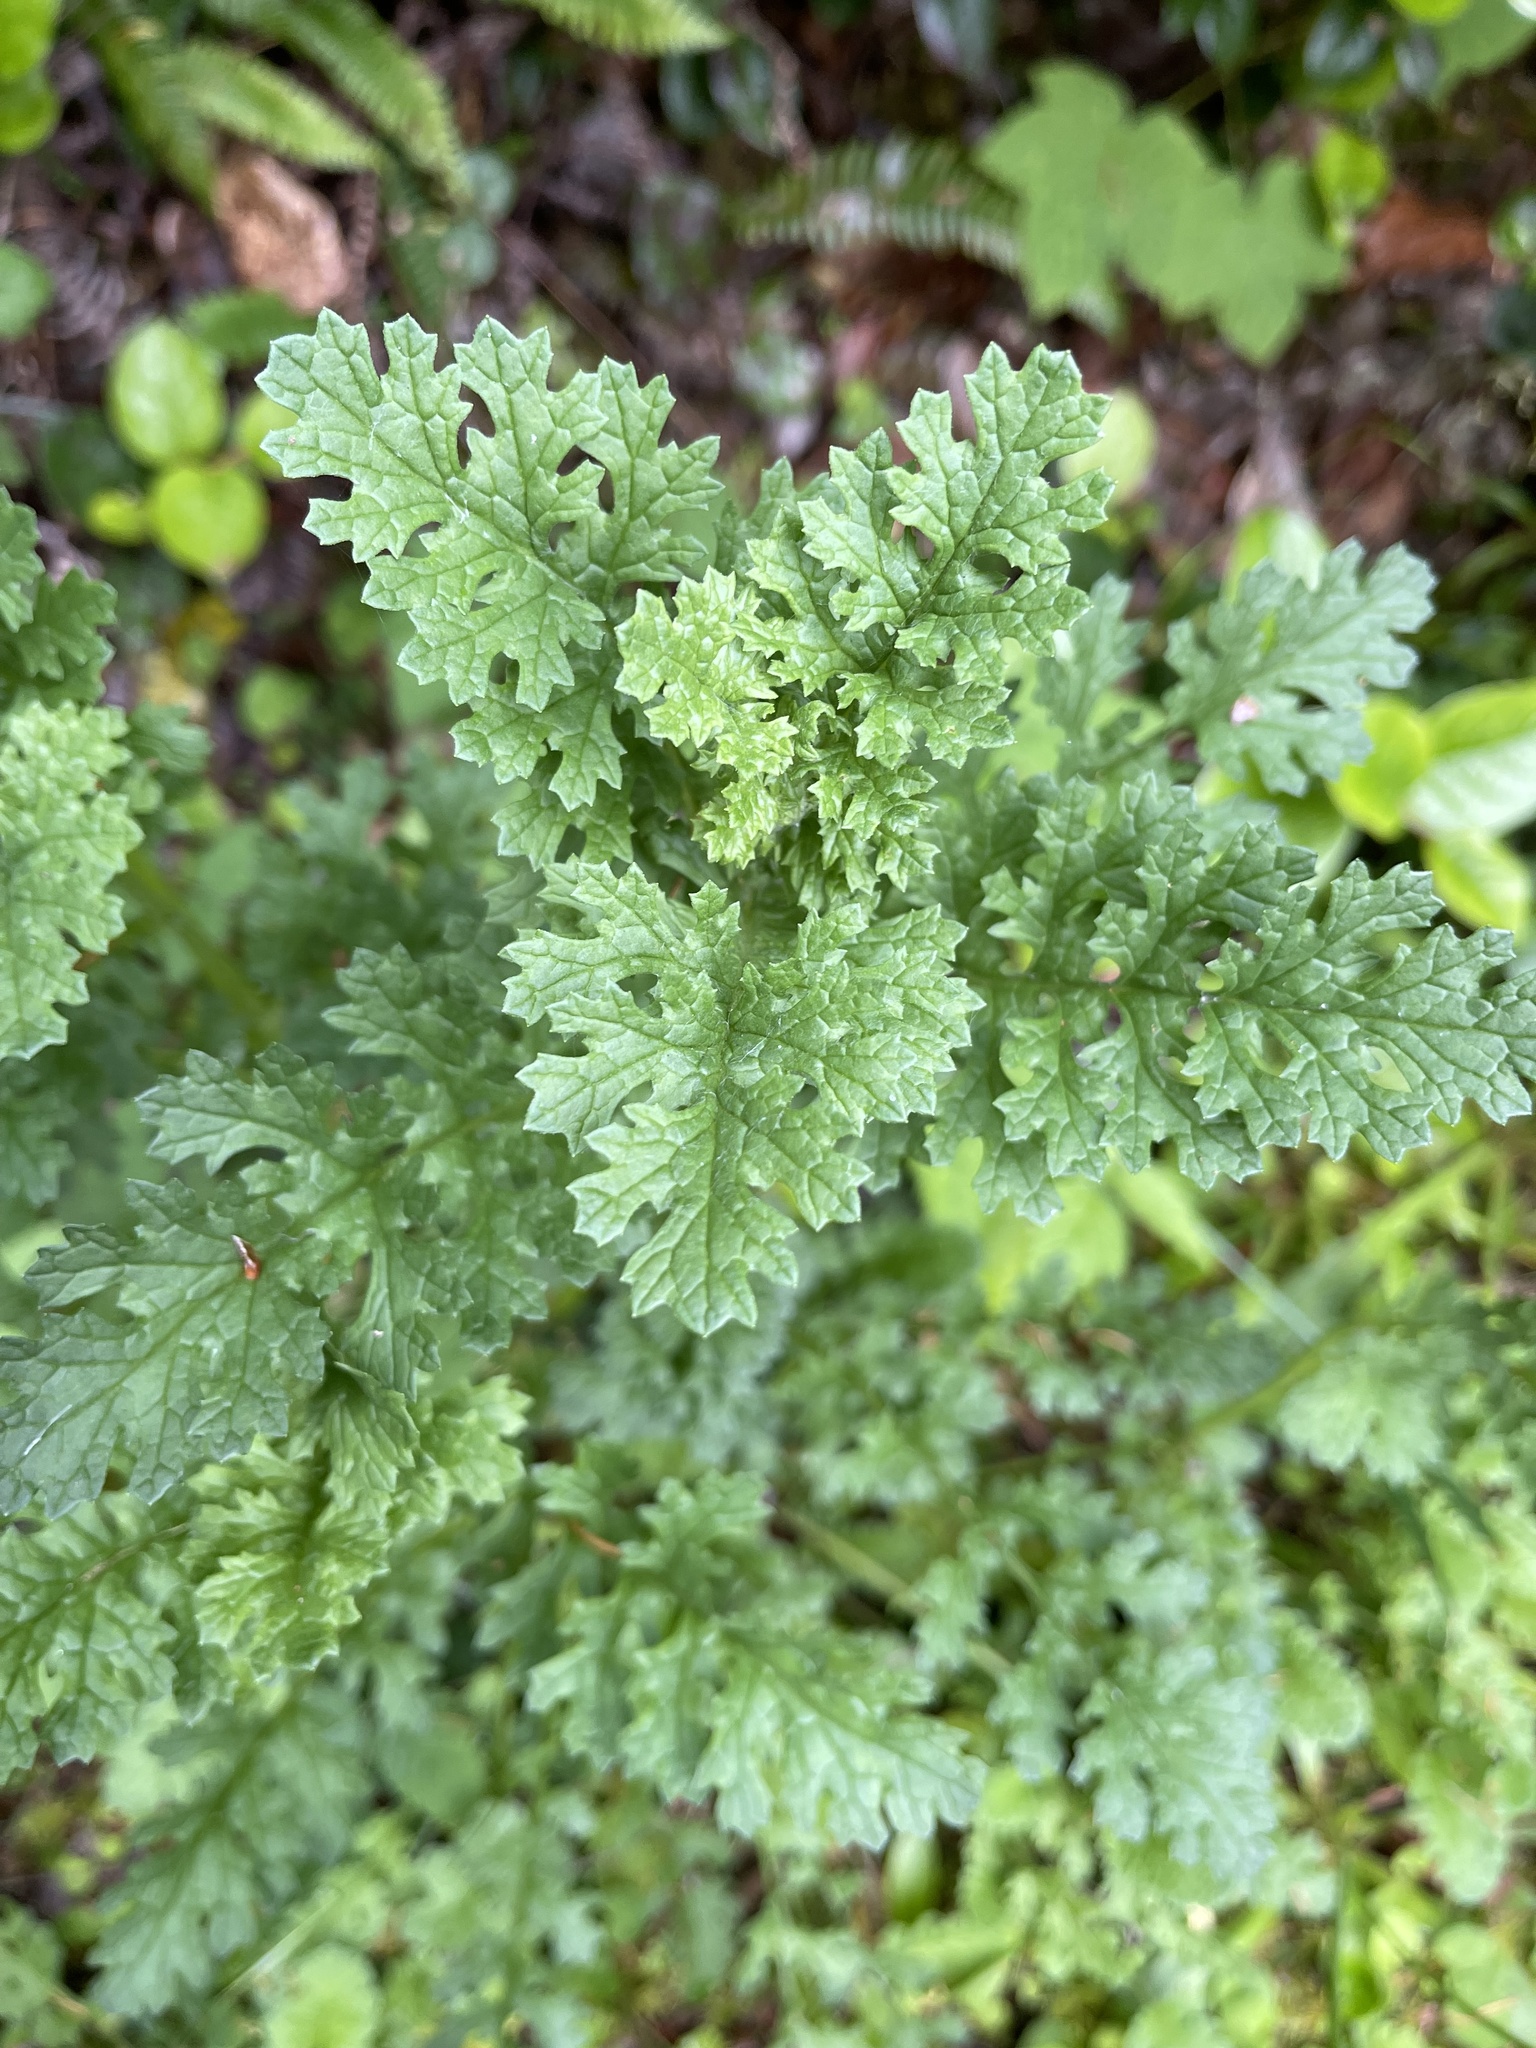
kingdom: Plantae
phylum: Tracheophyta
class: Magnoliopsida
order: Asterales
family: Asteraceae
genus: Jacobaea
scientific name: Jacobaea vulgaris
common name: Stinking willie
